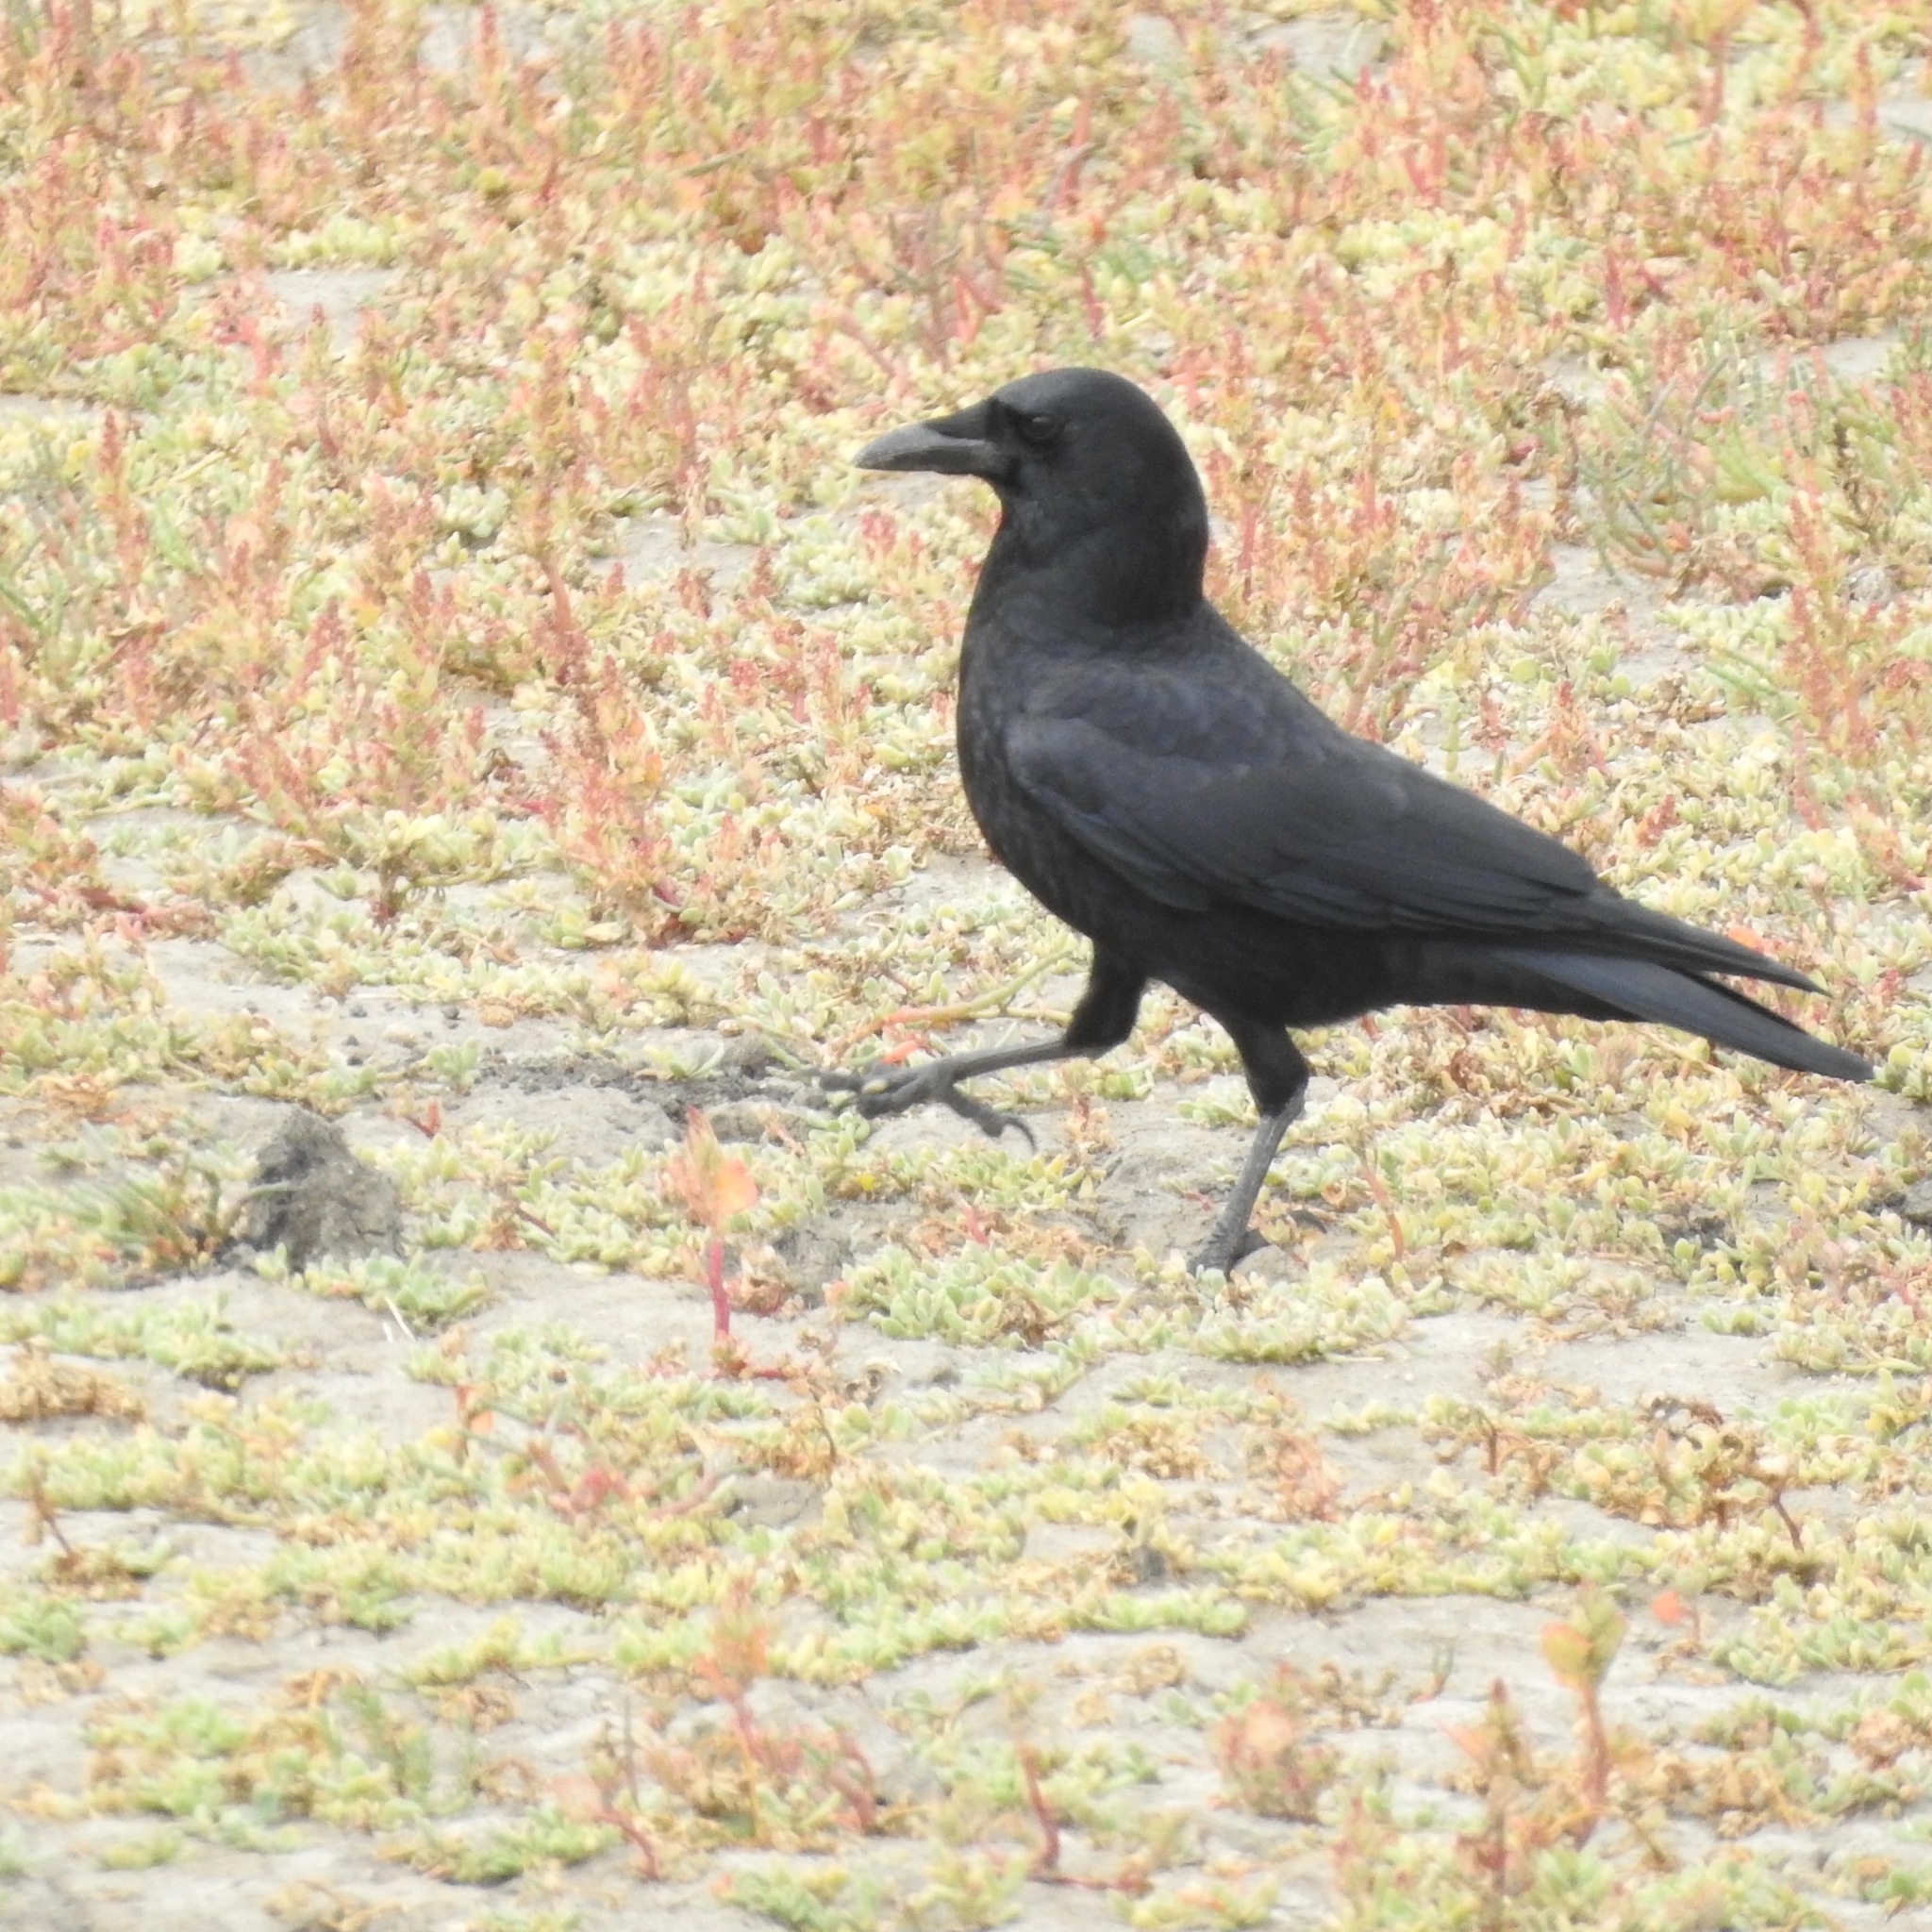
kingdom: Animalia
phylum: Chordata
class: Aves
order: Passeriformes
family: Corvidae
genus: Corvus
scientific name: Corvus brachyrhynchos
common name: American crow
